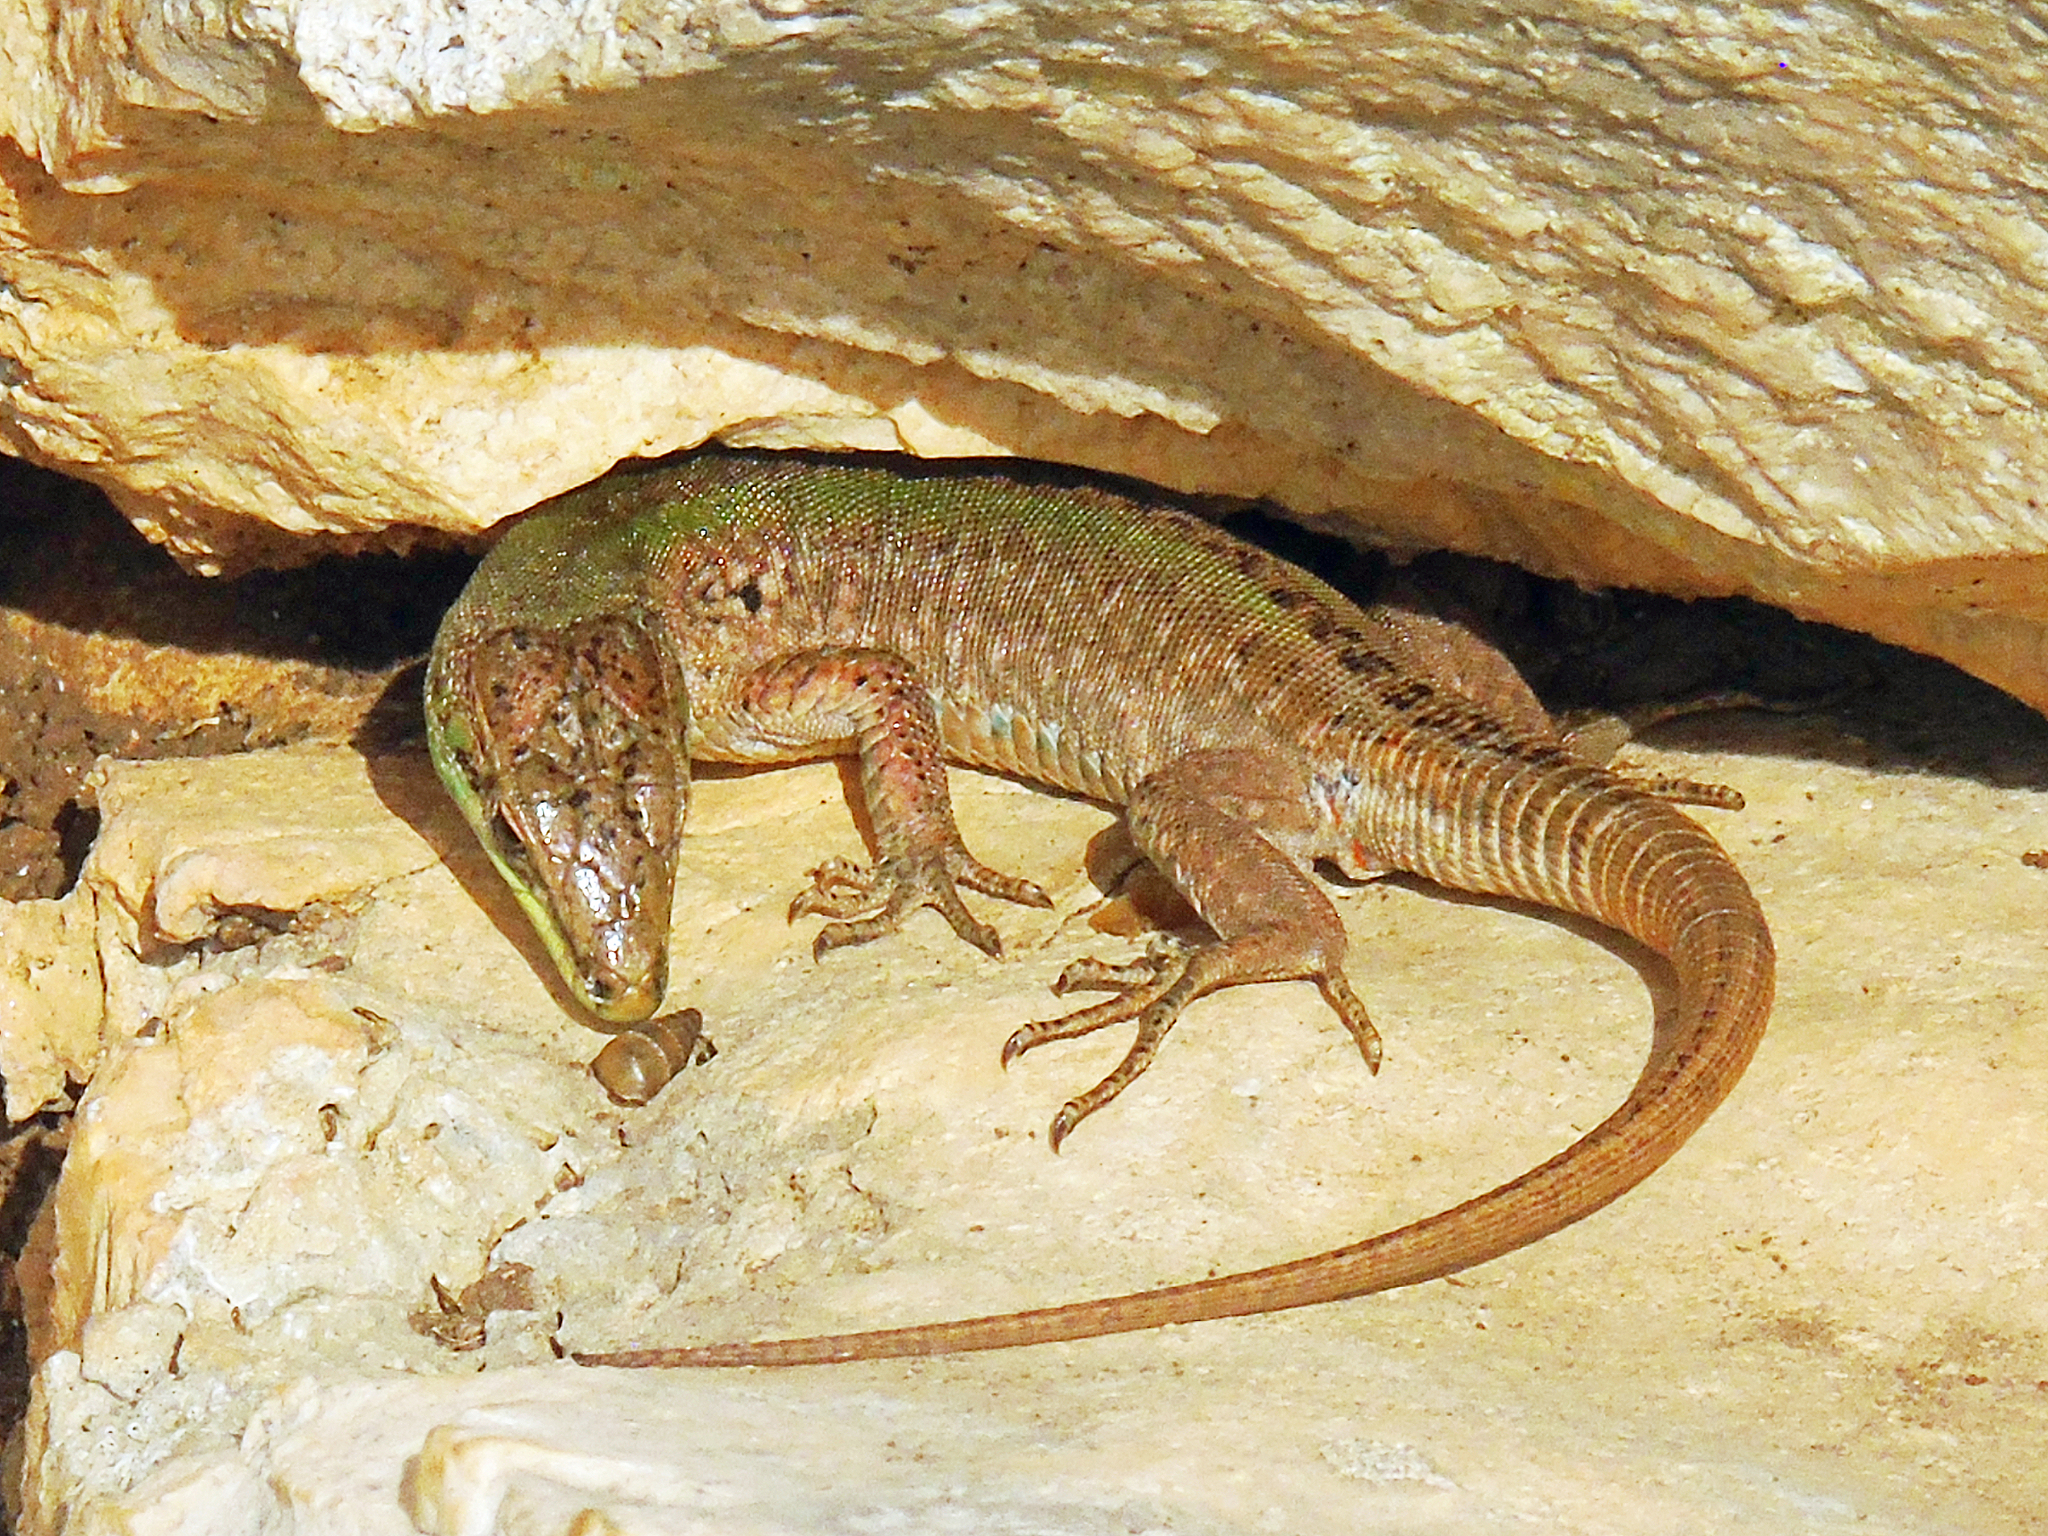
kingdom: Animalia
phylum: Chordata
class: Squamata
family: Lacertidae
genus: Podarcis
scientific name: Podarcis siculus
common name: Italian wall lizard
